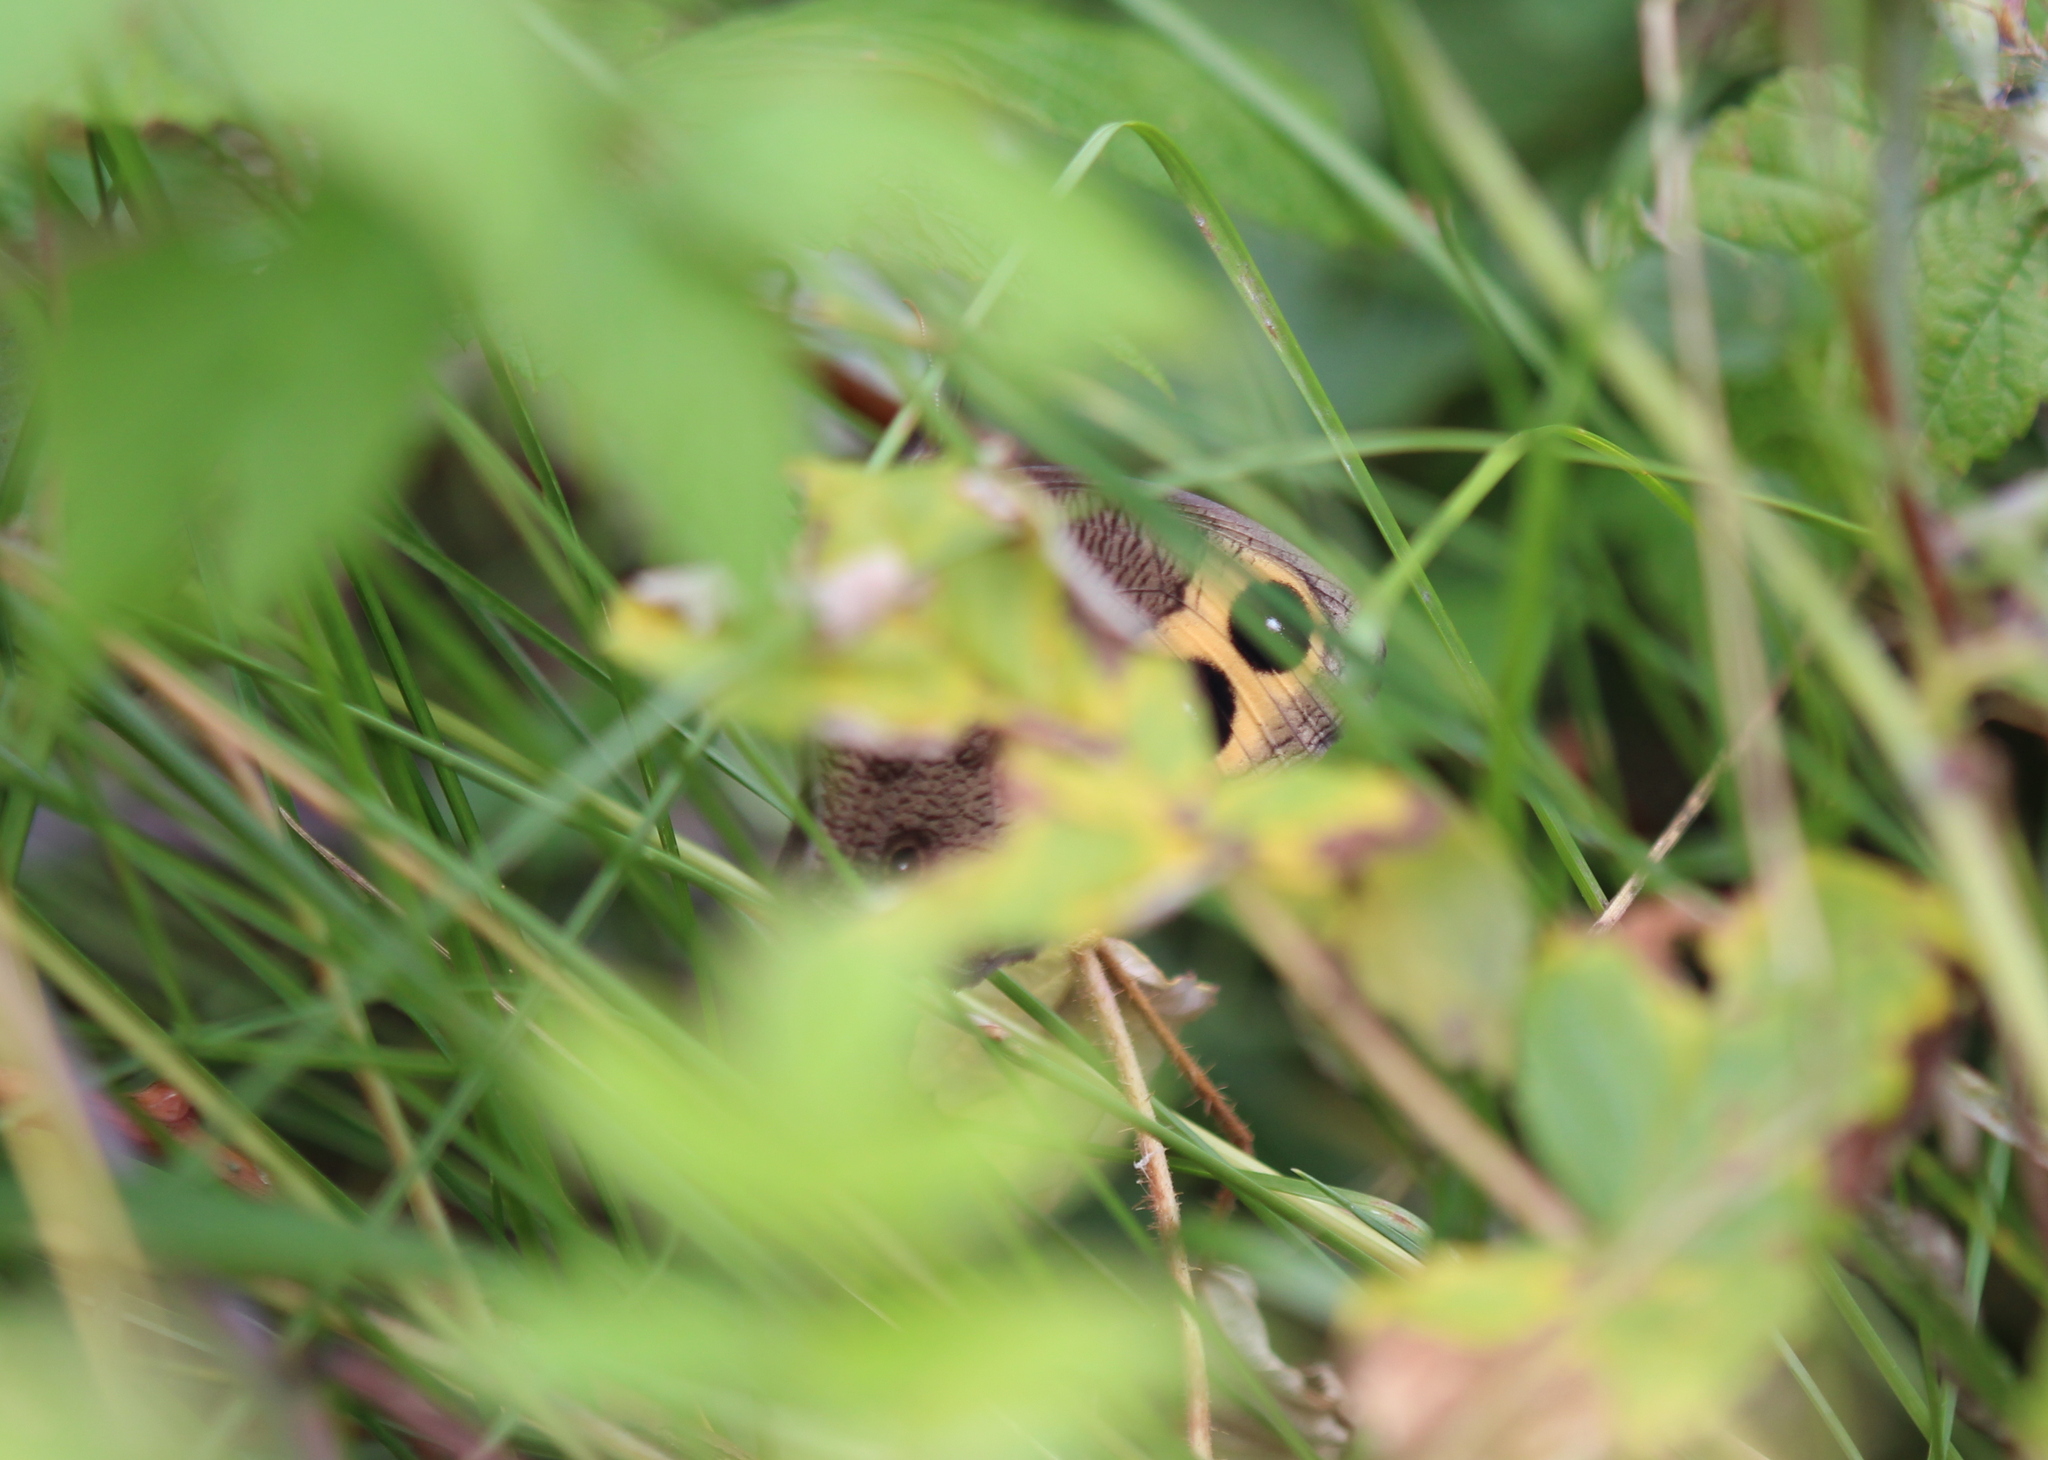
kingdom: Animalia
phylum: Arthropoda
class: Insecta
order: Lepidoptera
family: Nymphalidae
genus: Cercyonis
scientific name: Cercyonis pegala
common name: Common wood-nymph
